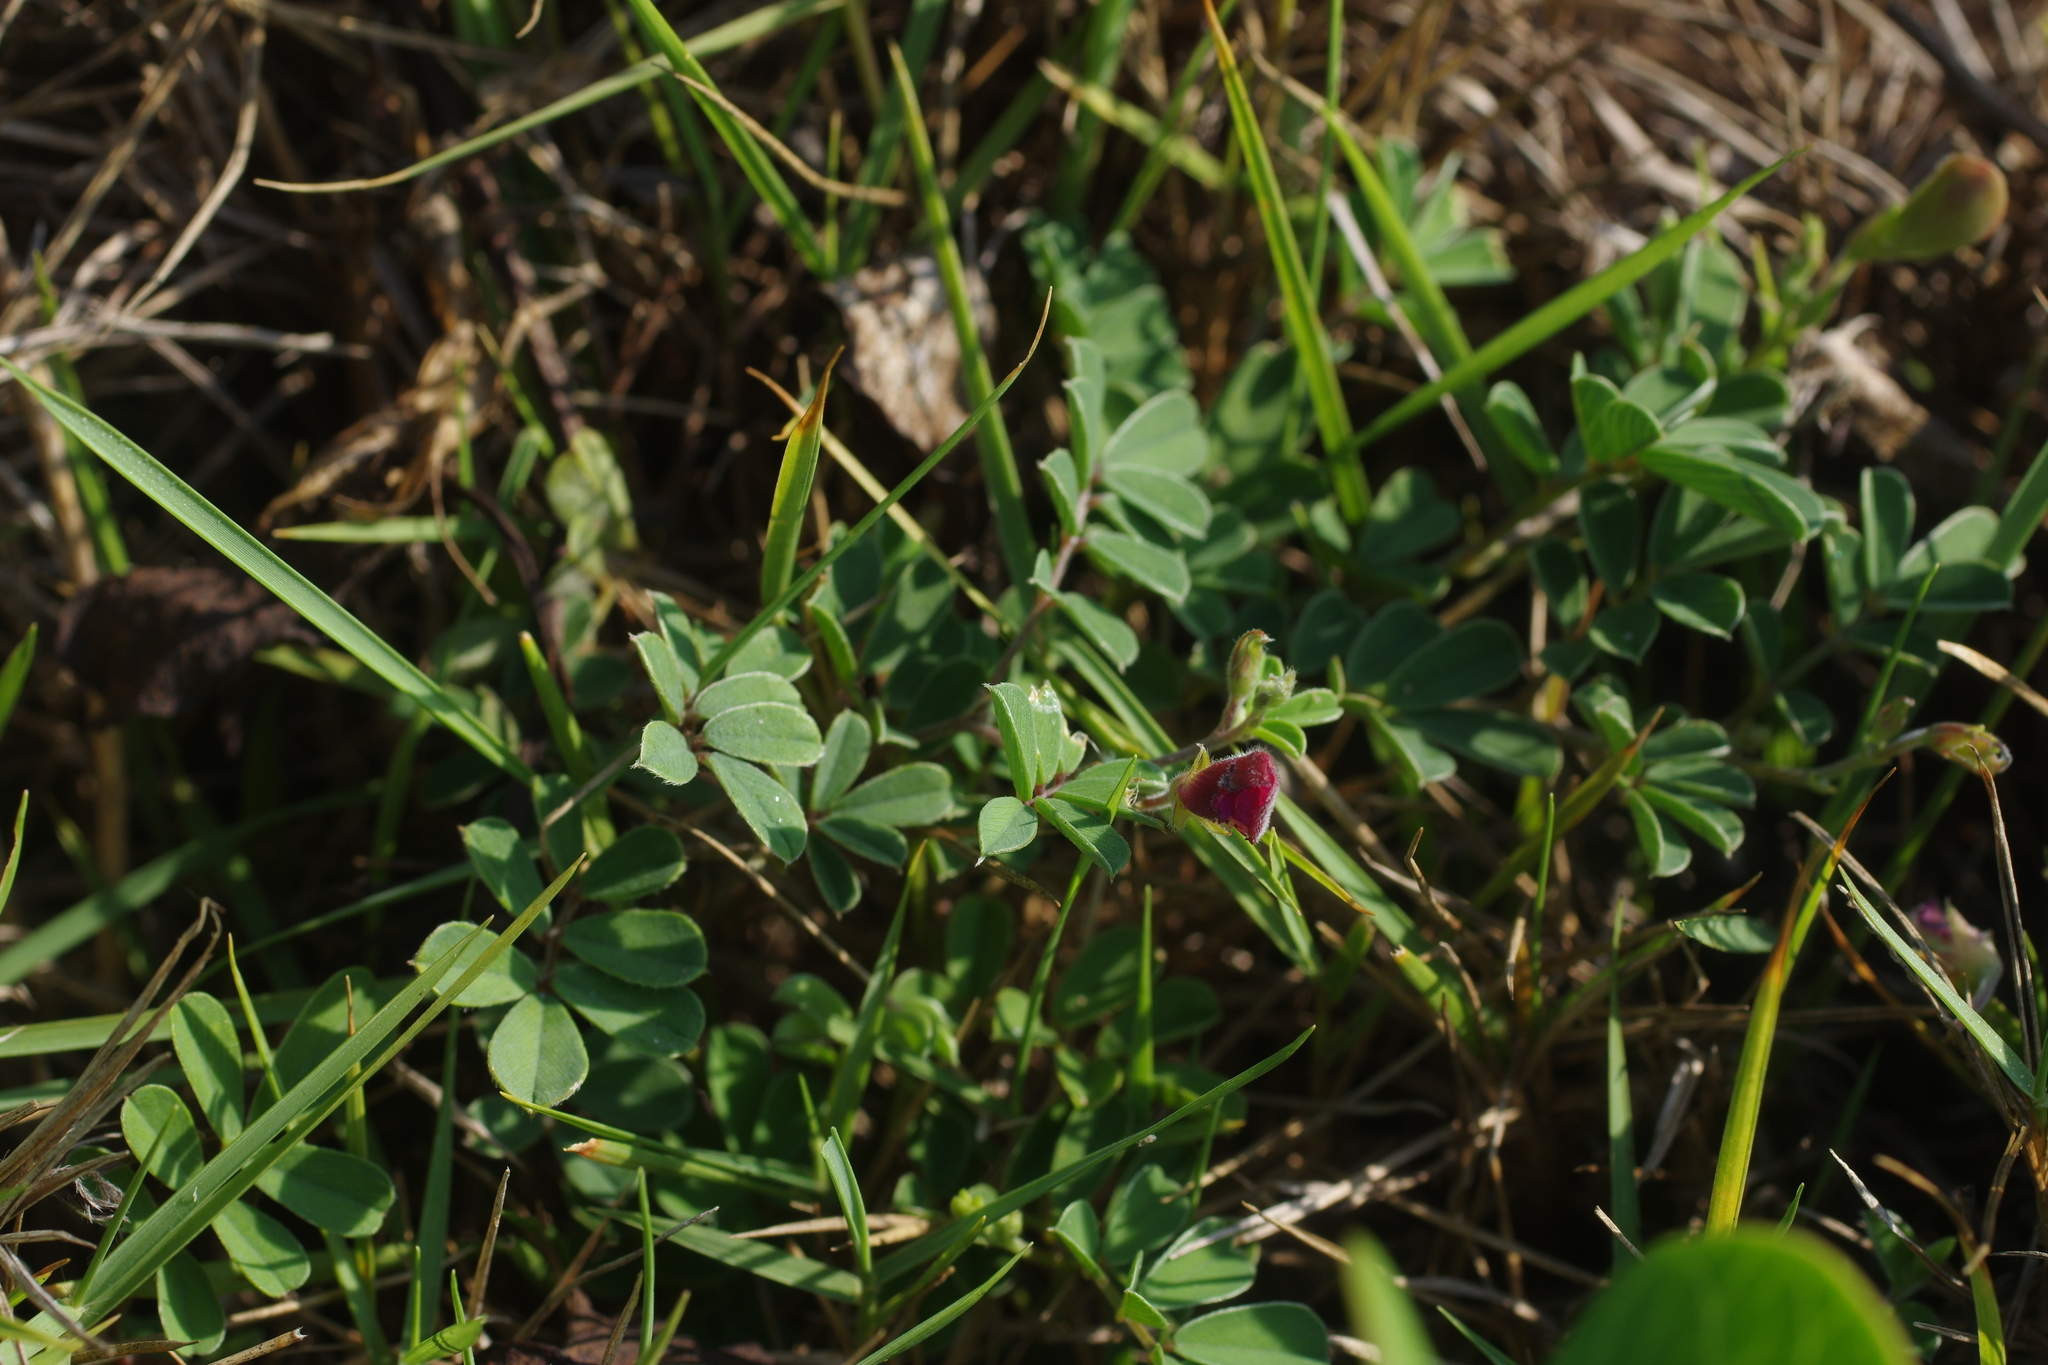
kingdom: Plantae
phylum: Tracheophyta
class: Magnoliopsida
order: Fabales
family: Fabaceae
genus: Tephrosia
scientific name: Tephrosia obovata
